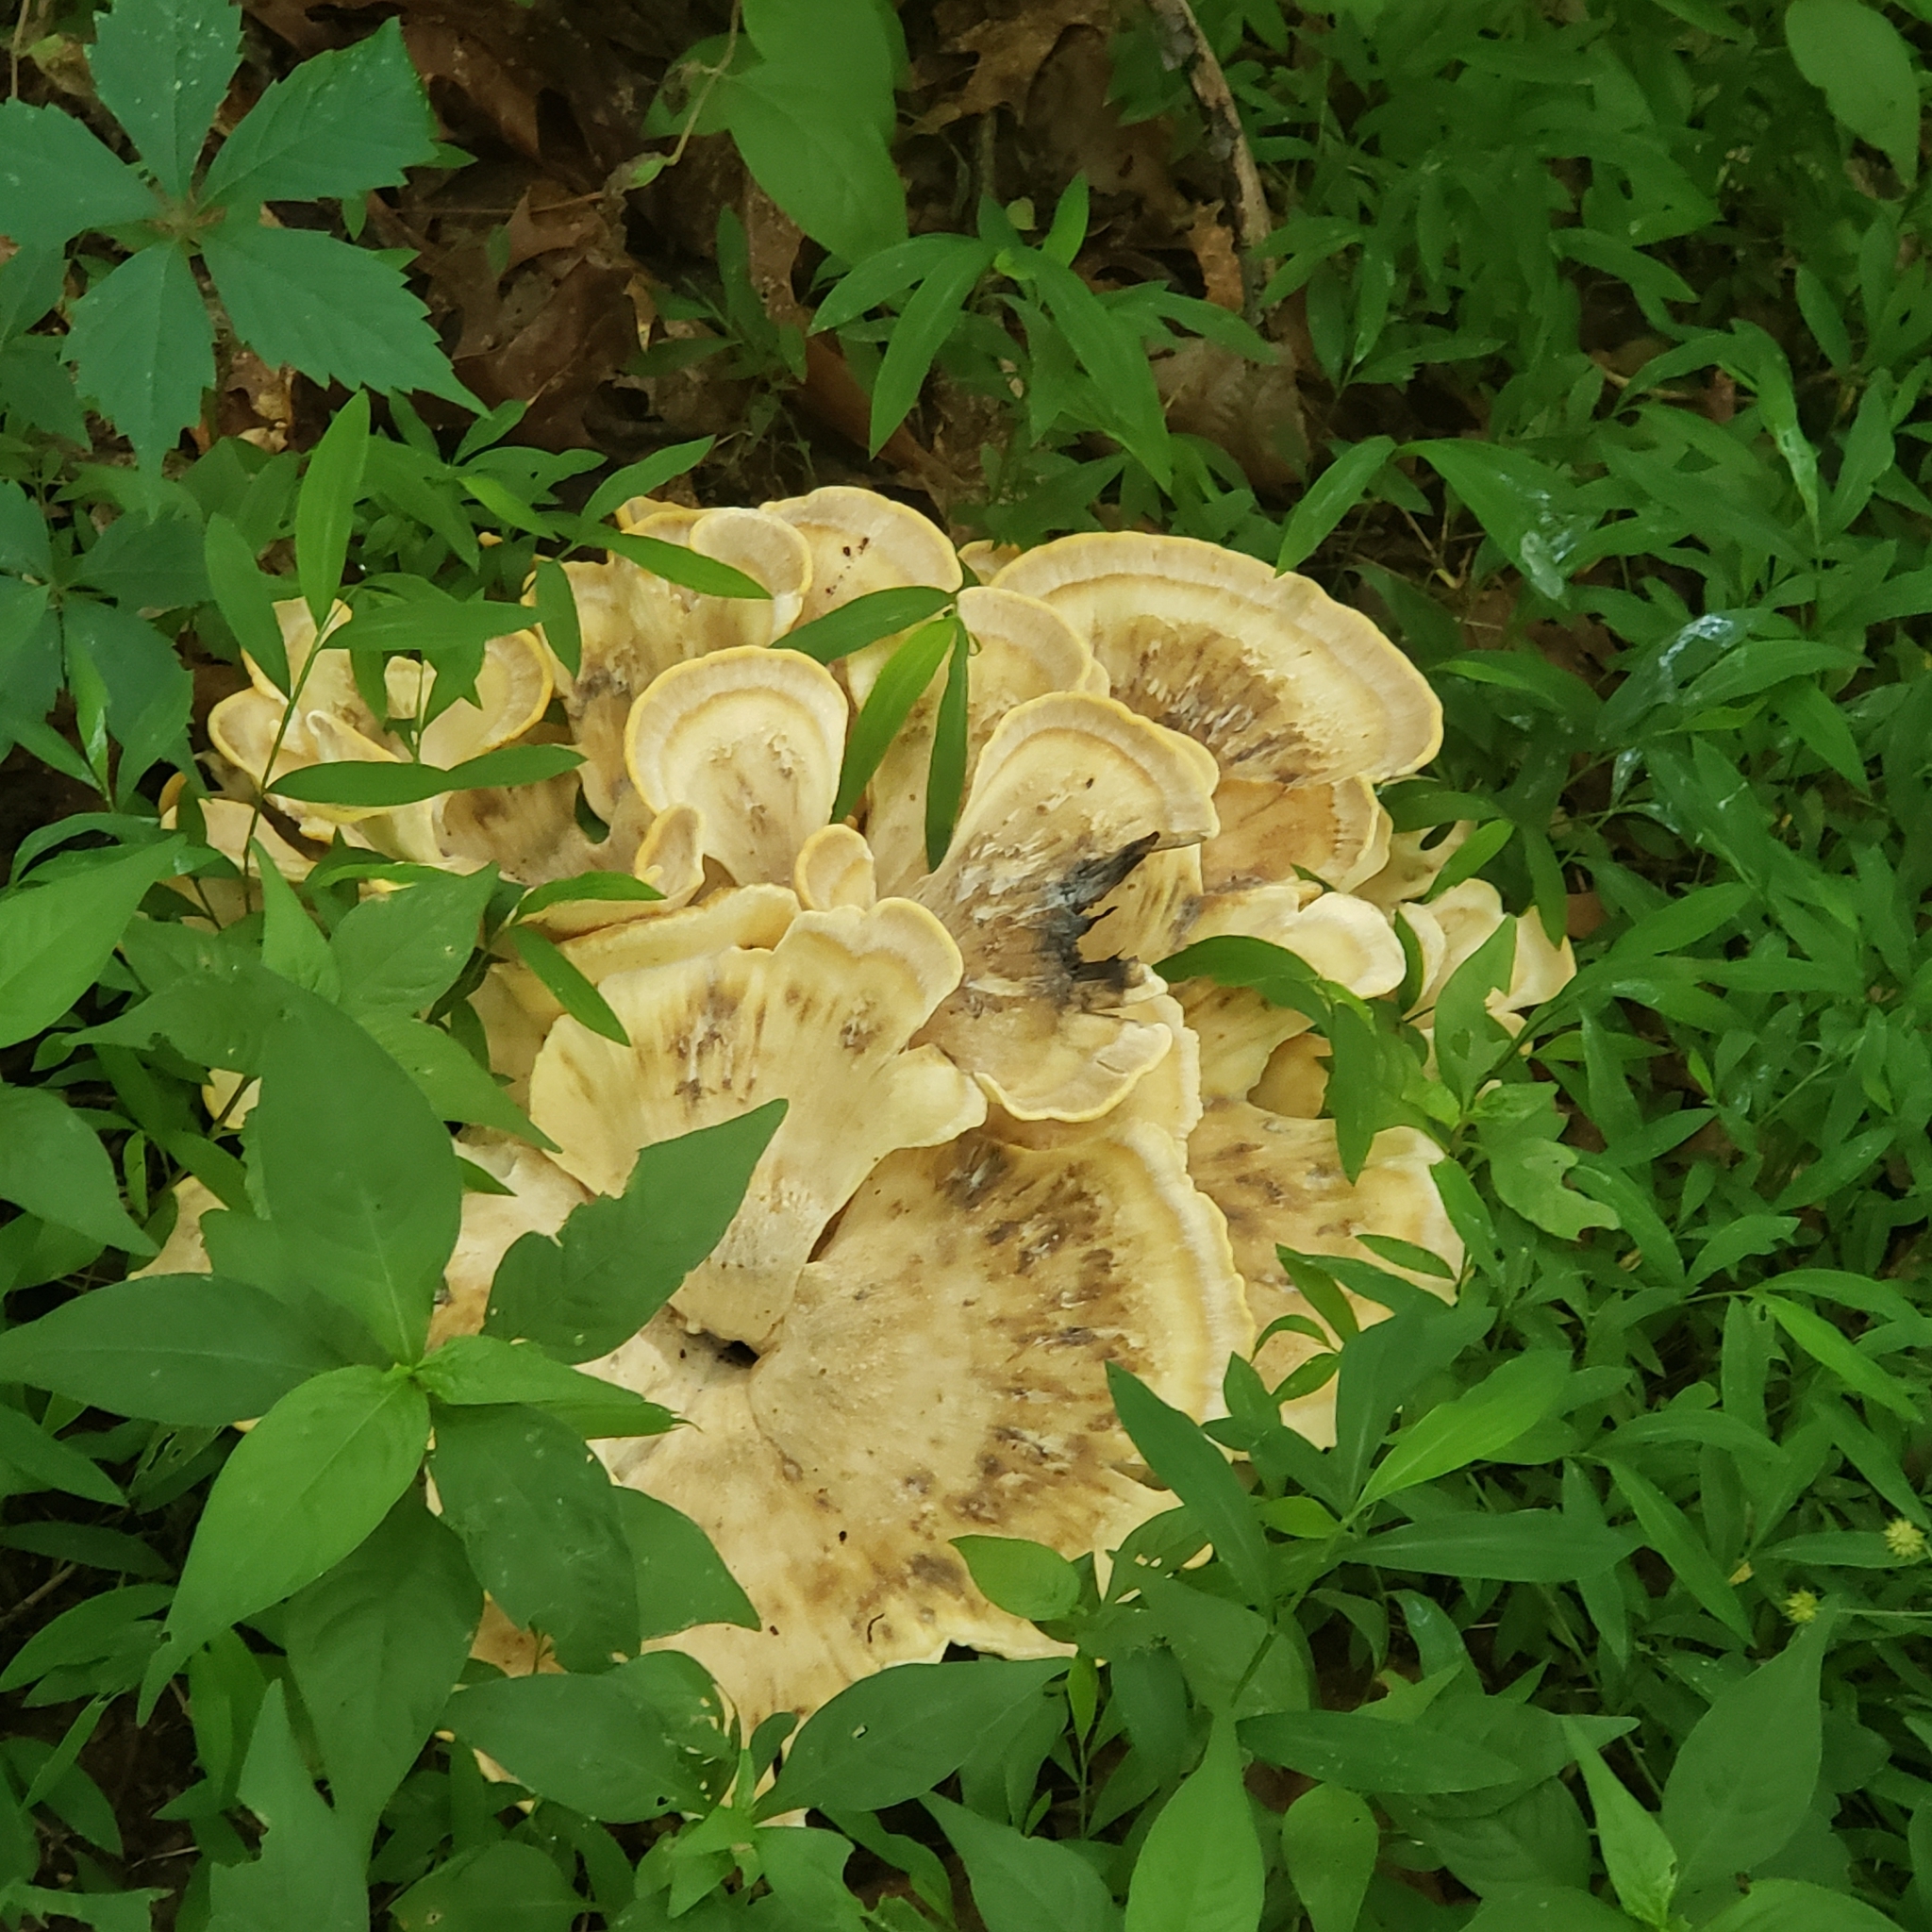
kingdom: Fungi
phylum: Basidiomycota
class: Agaricomycetes
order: Polyporales
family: Meripilaceae
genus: Meripilus
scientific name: Meripilus sumstinei
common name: Black-staining polypore
